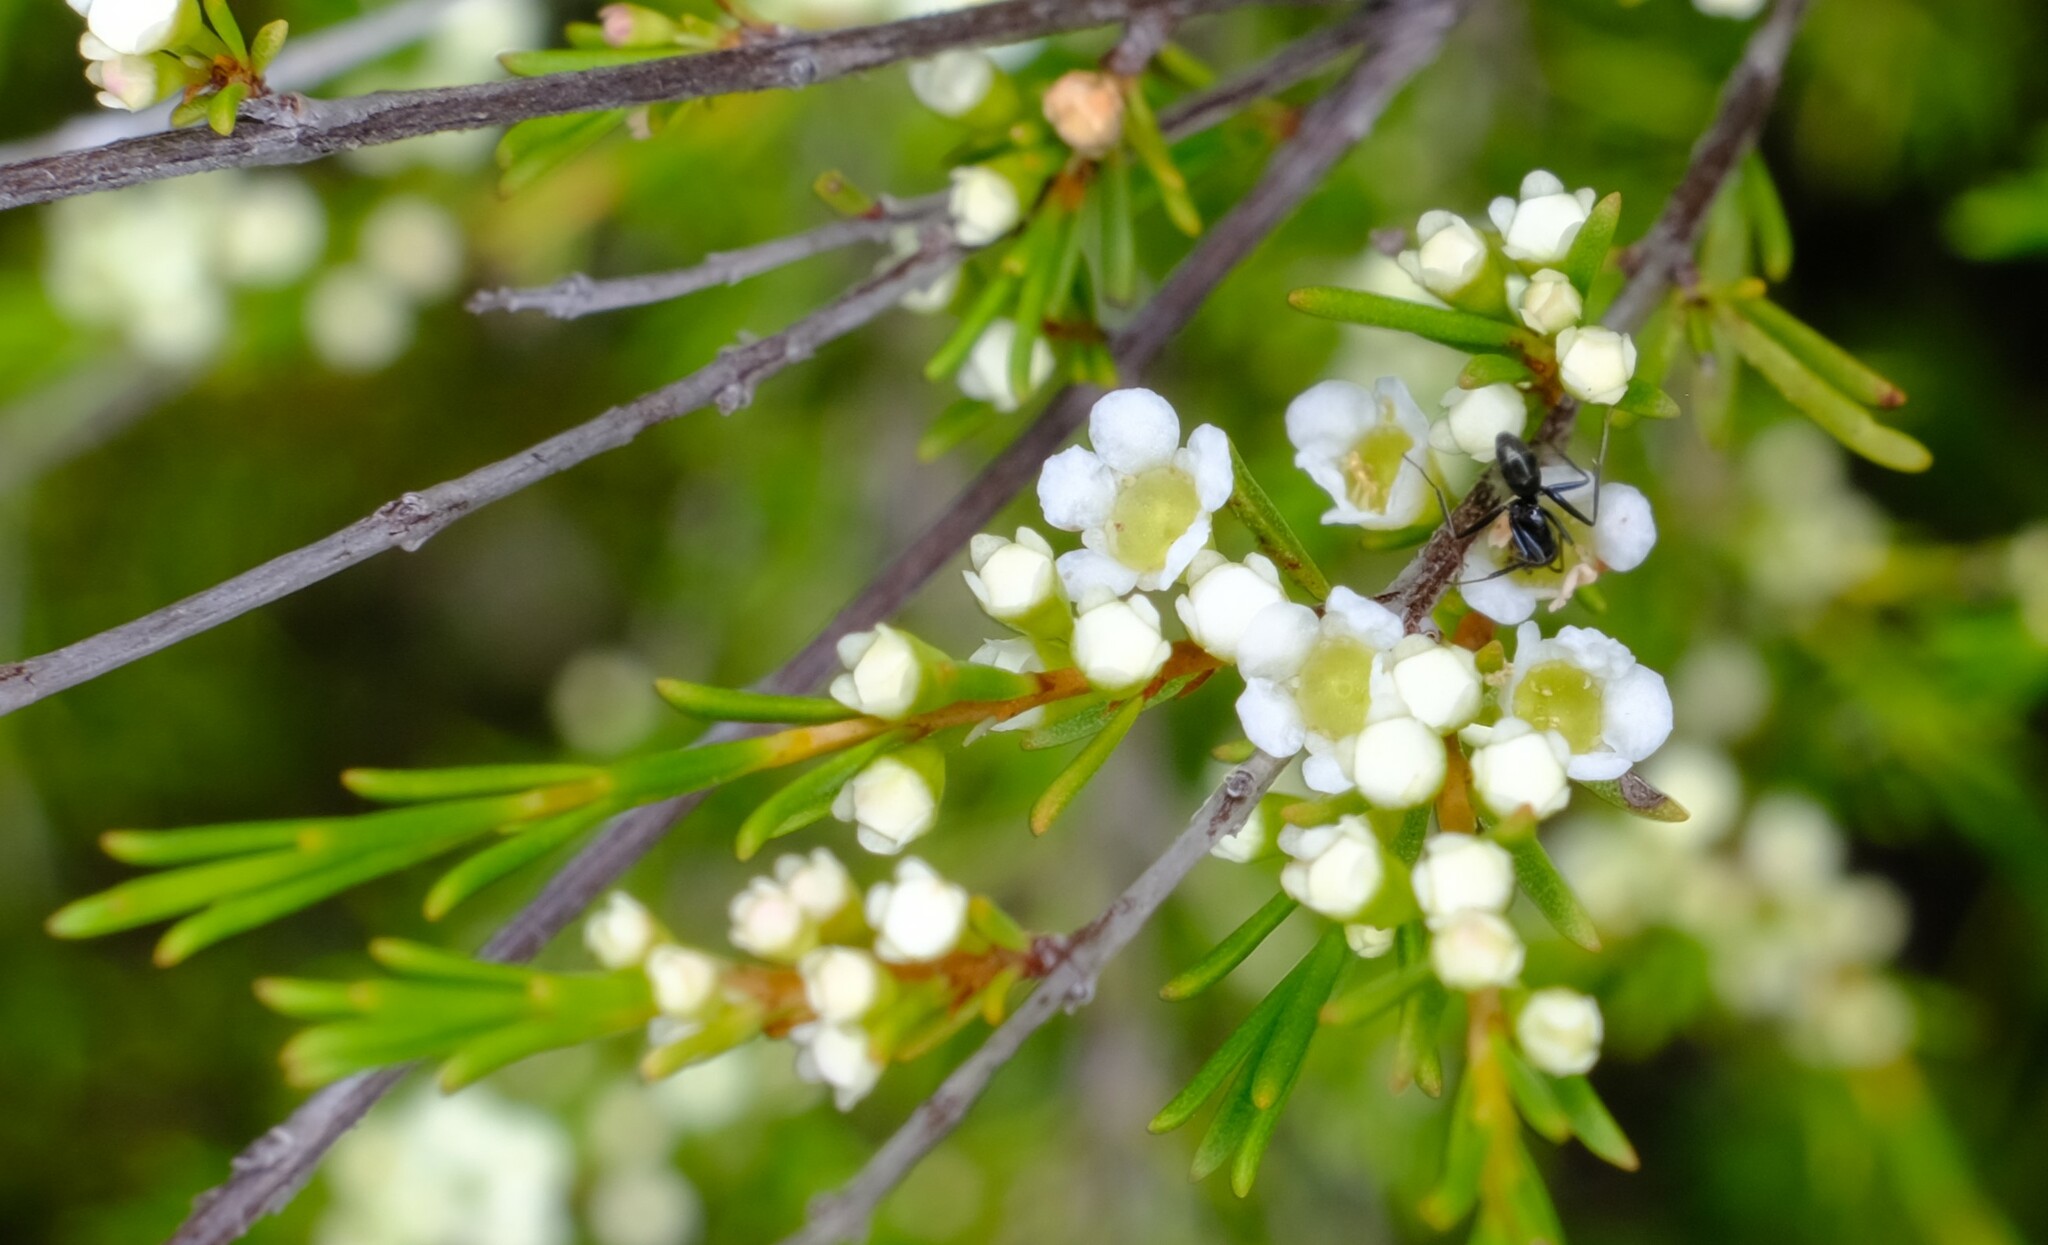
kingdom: Plantae
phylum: Tracheophyta
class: Magnoliopsida
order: Myrtales
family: Myrtaceae
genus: Baeckea
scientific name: Baeckea frutescens
